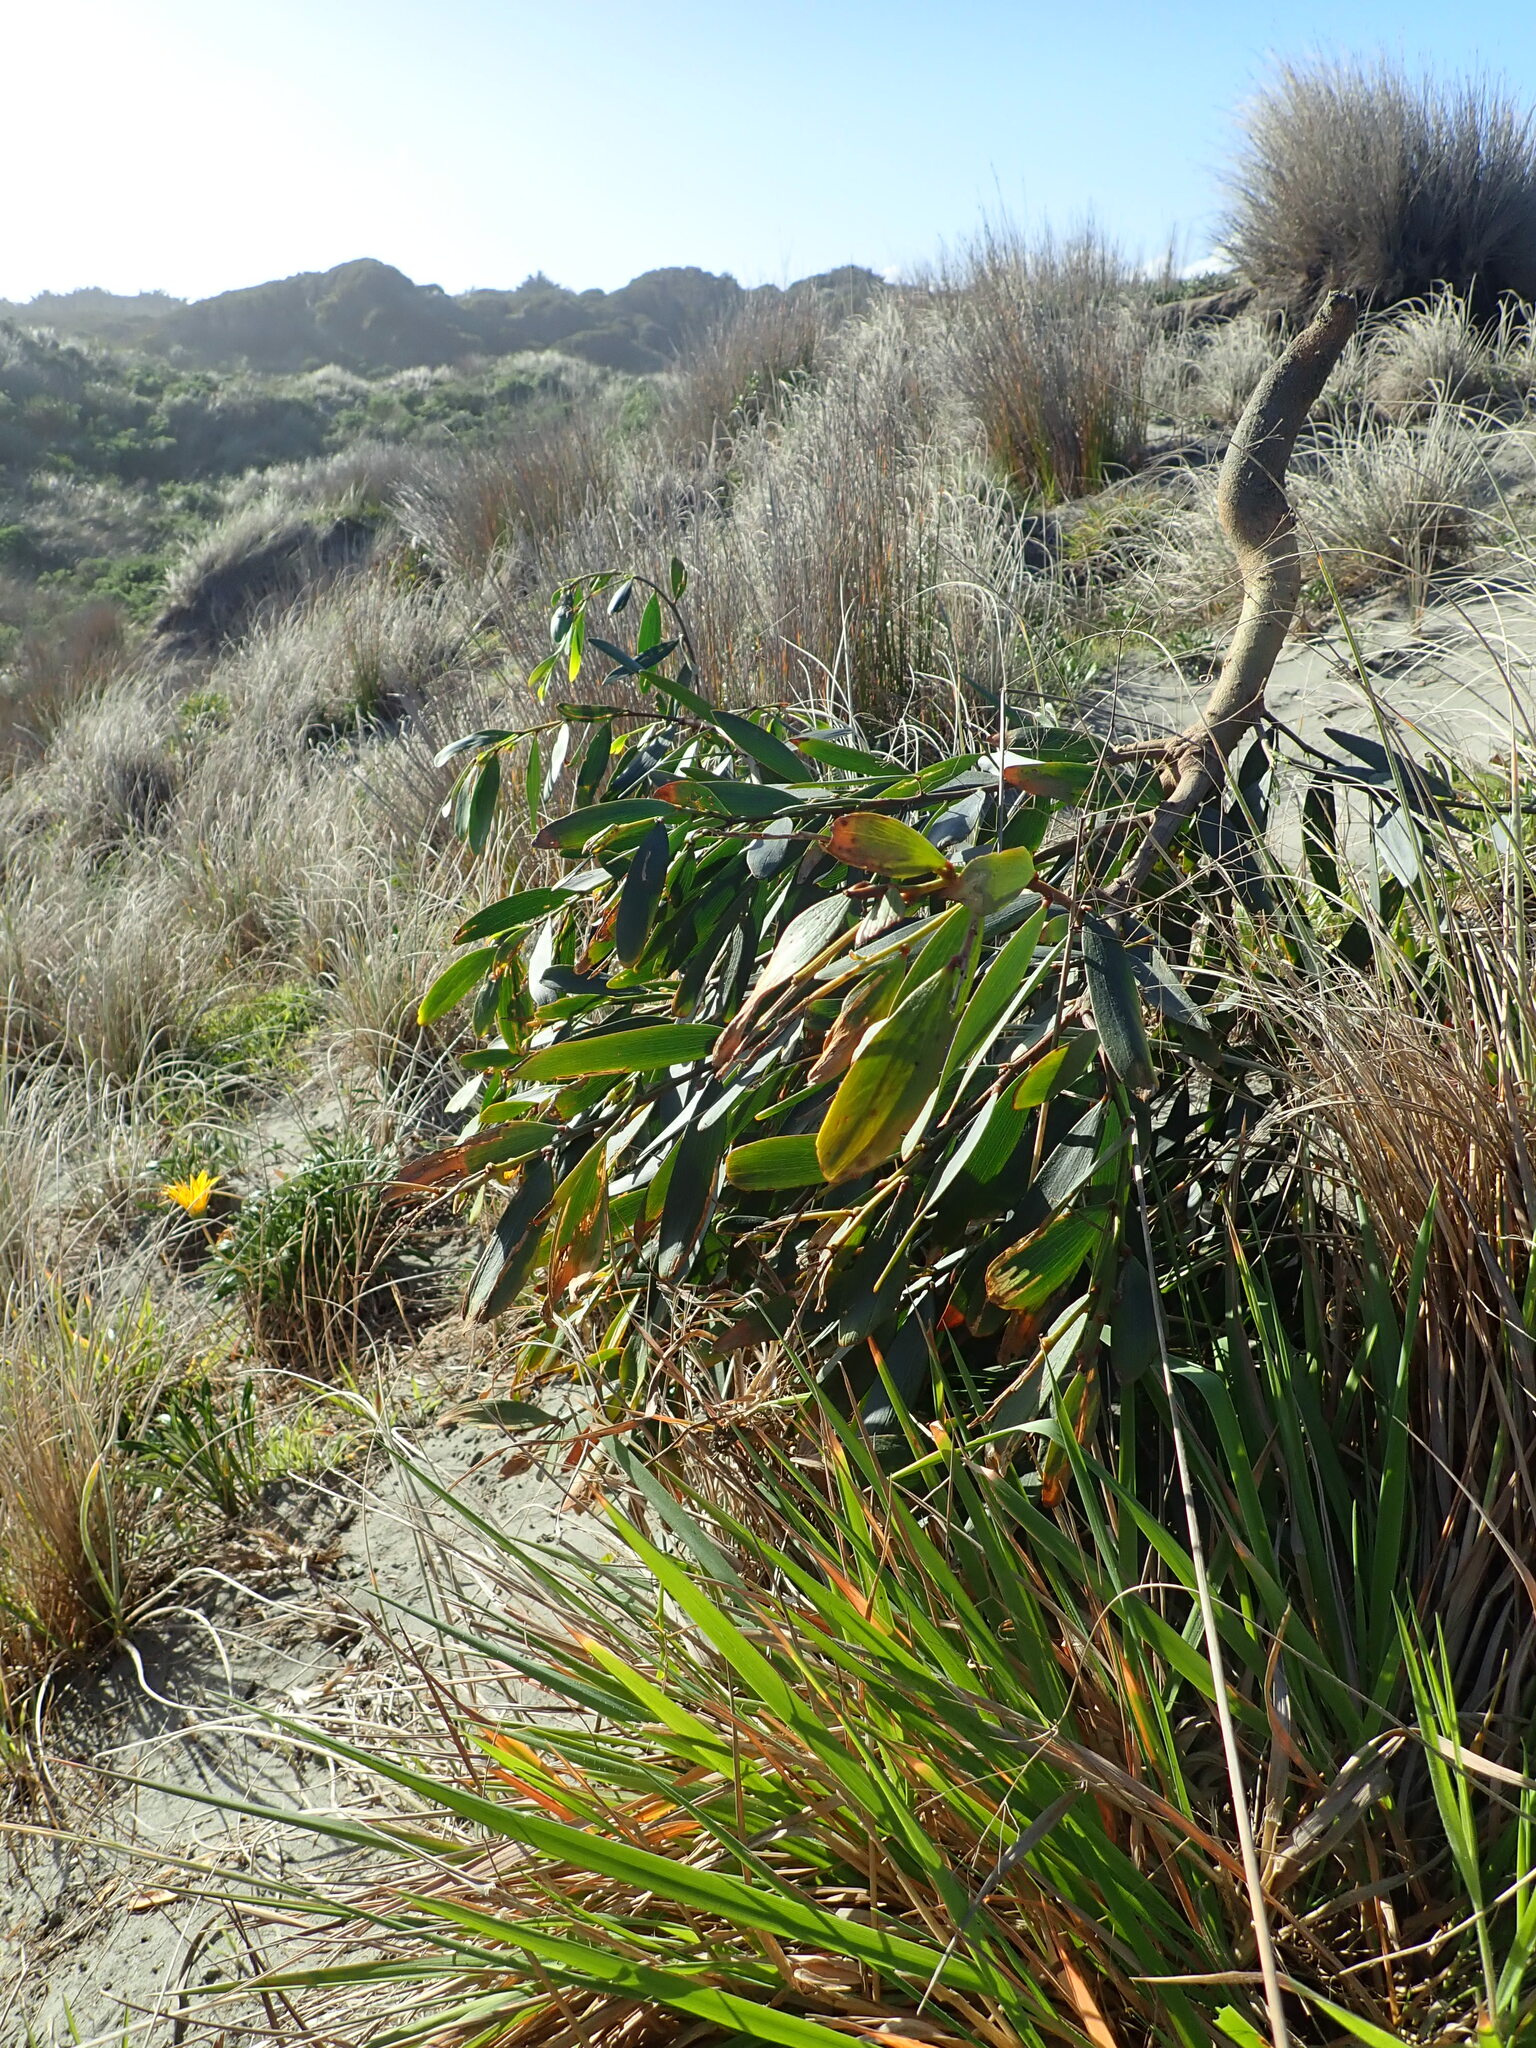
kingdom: Plantae
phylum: Tracheophyta
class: Magnoliopsida
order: Fabales
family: Fabaceae
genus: Acacia
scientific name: Acacia longifolia
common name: Sydney golden wattle
